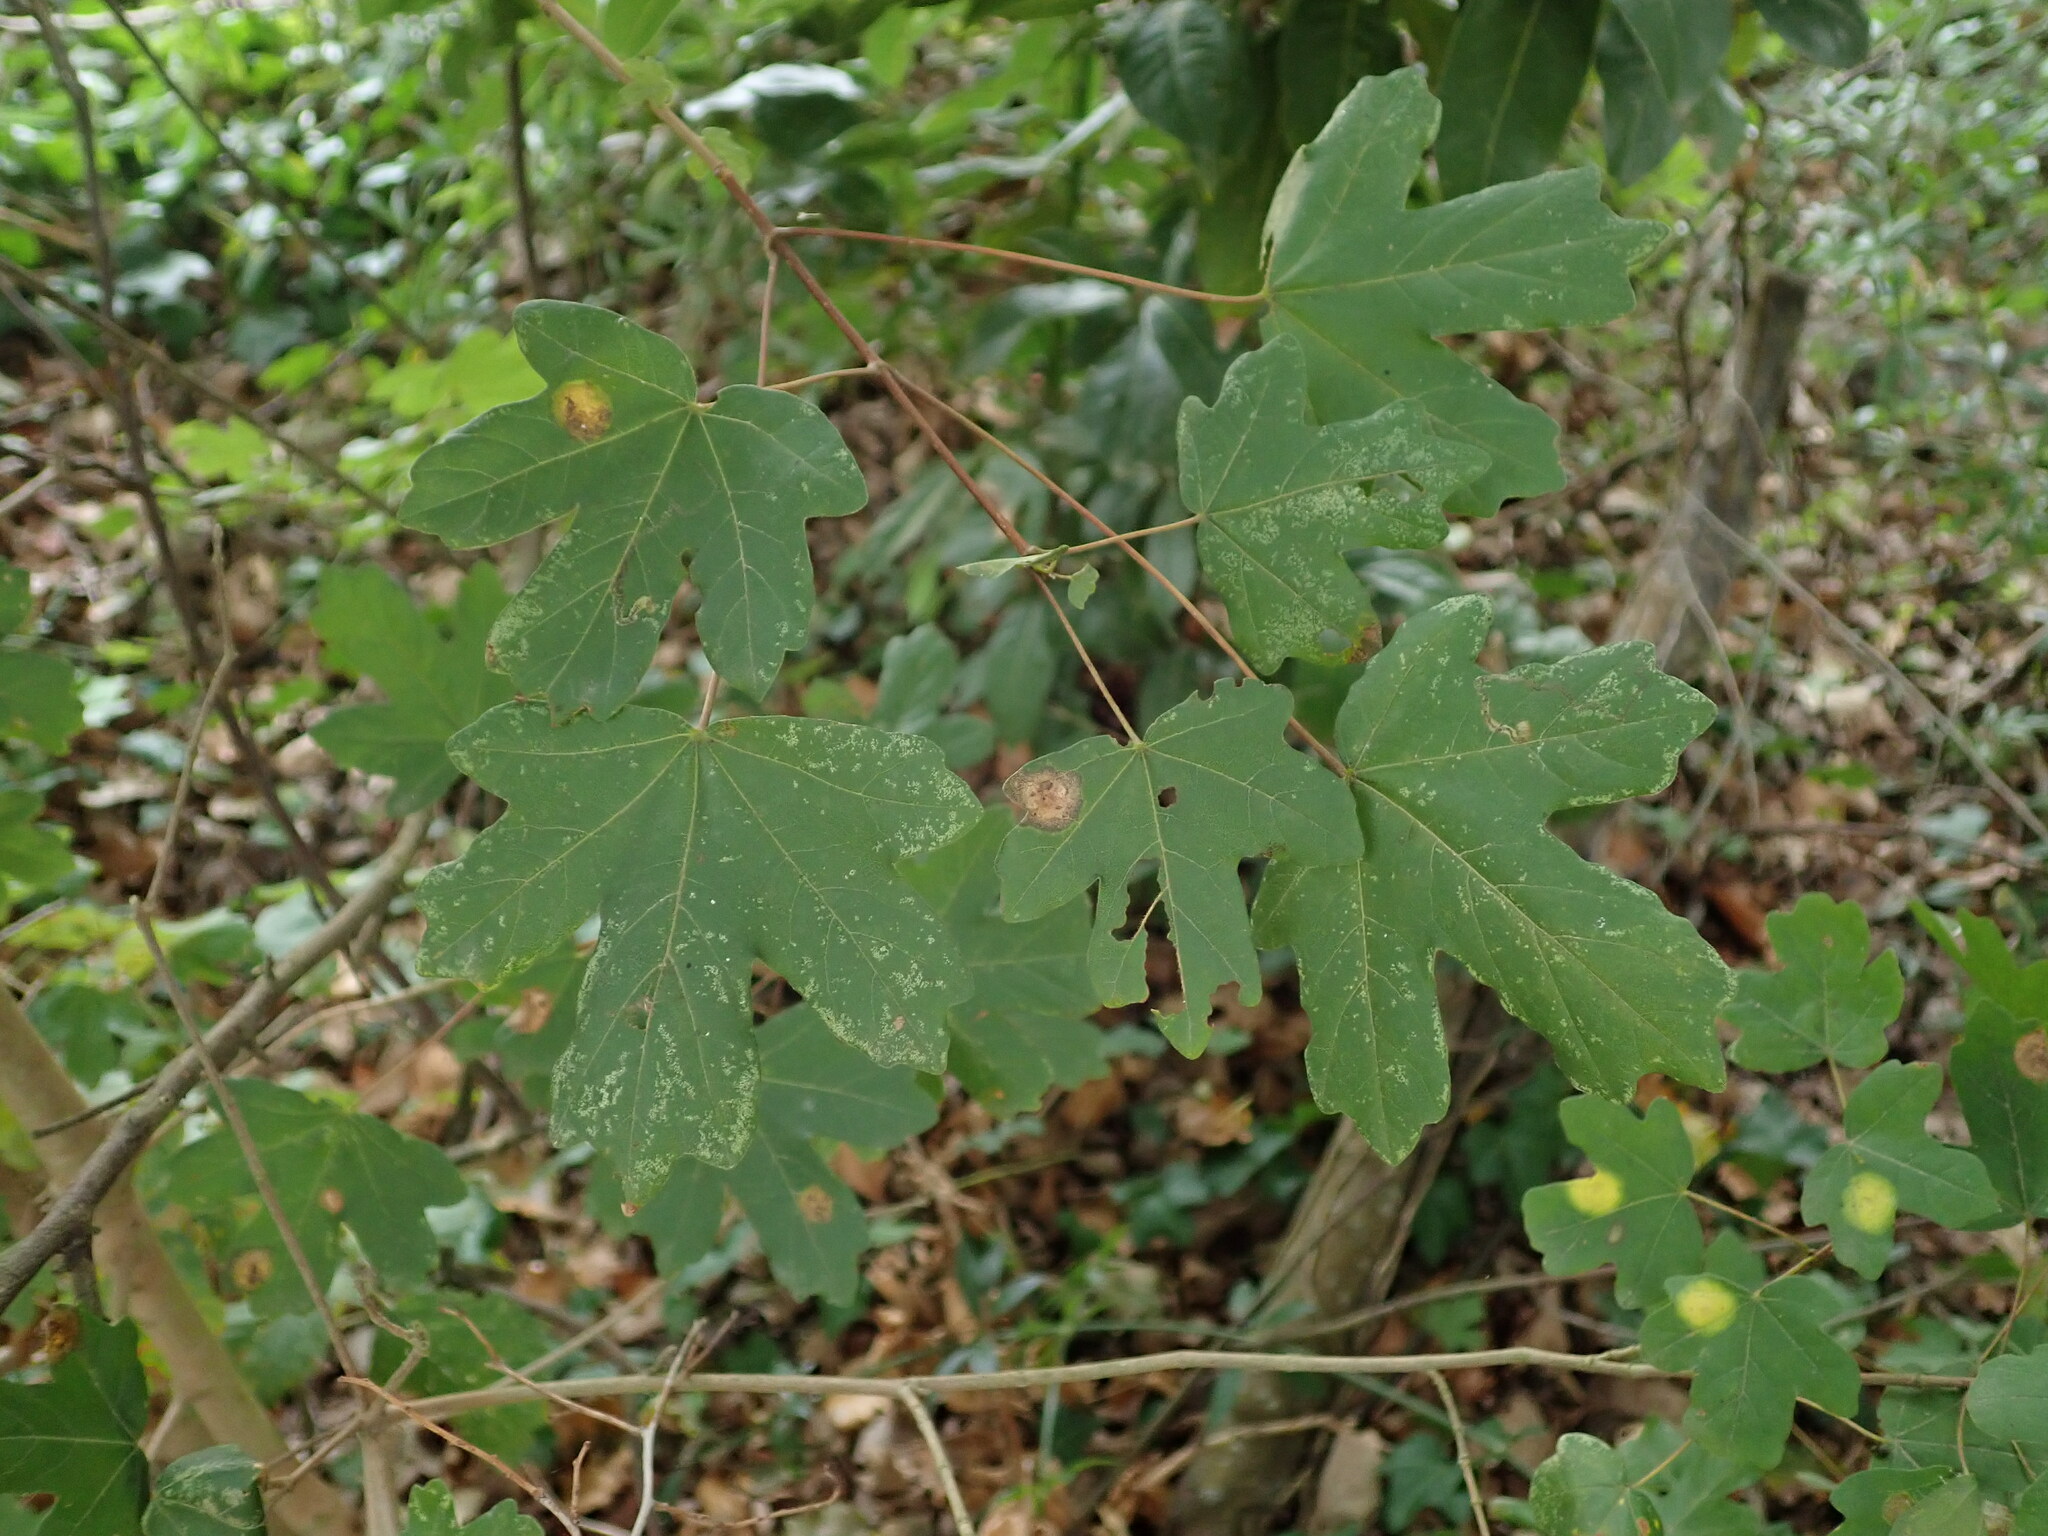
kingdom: Plantae
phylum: Tracheophyta
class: Magnoliopsida
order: Sapindales
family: Sapindaceae
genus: Acer
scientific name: Acer campestre
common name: Field maple
